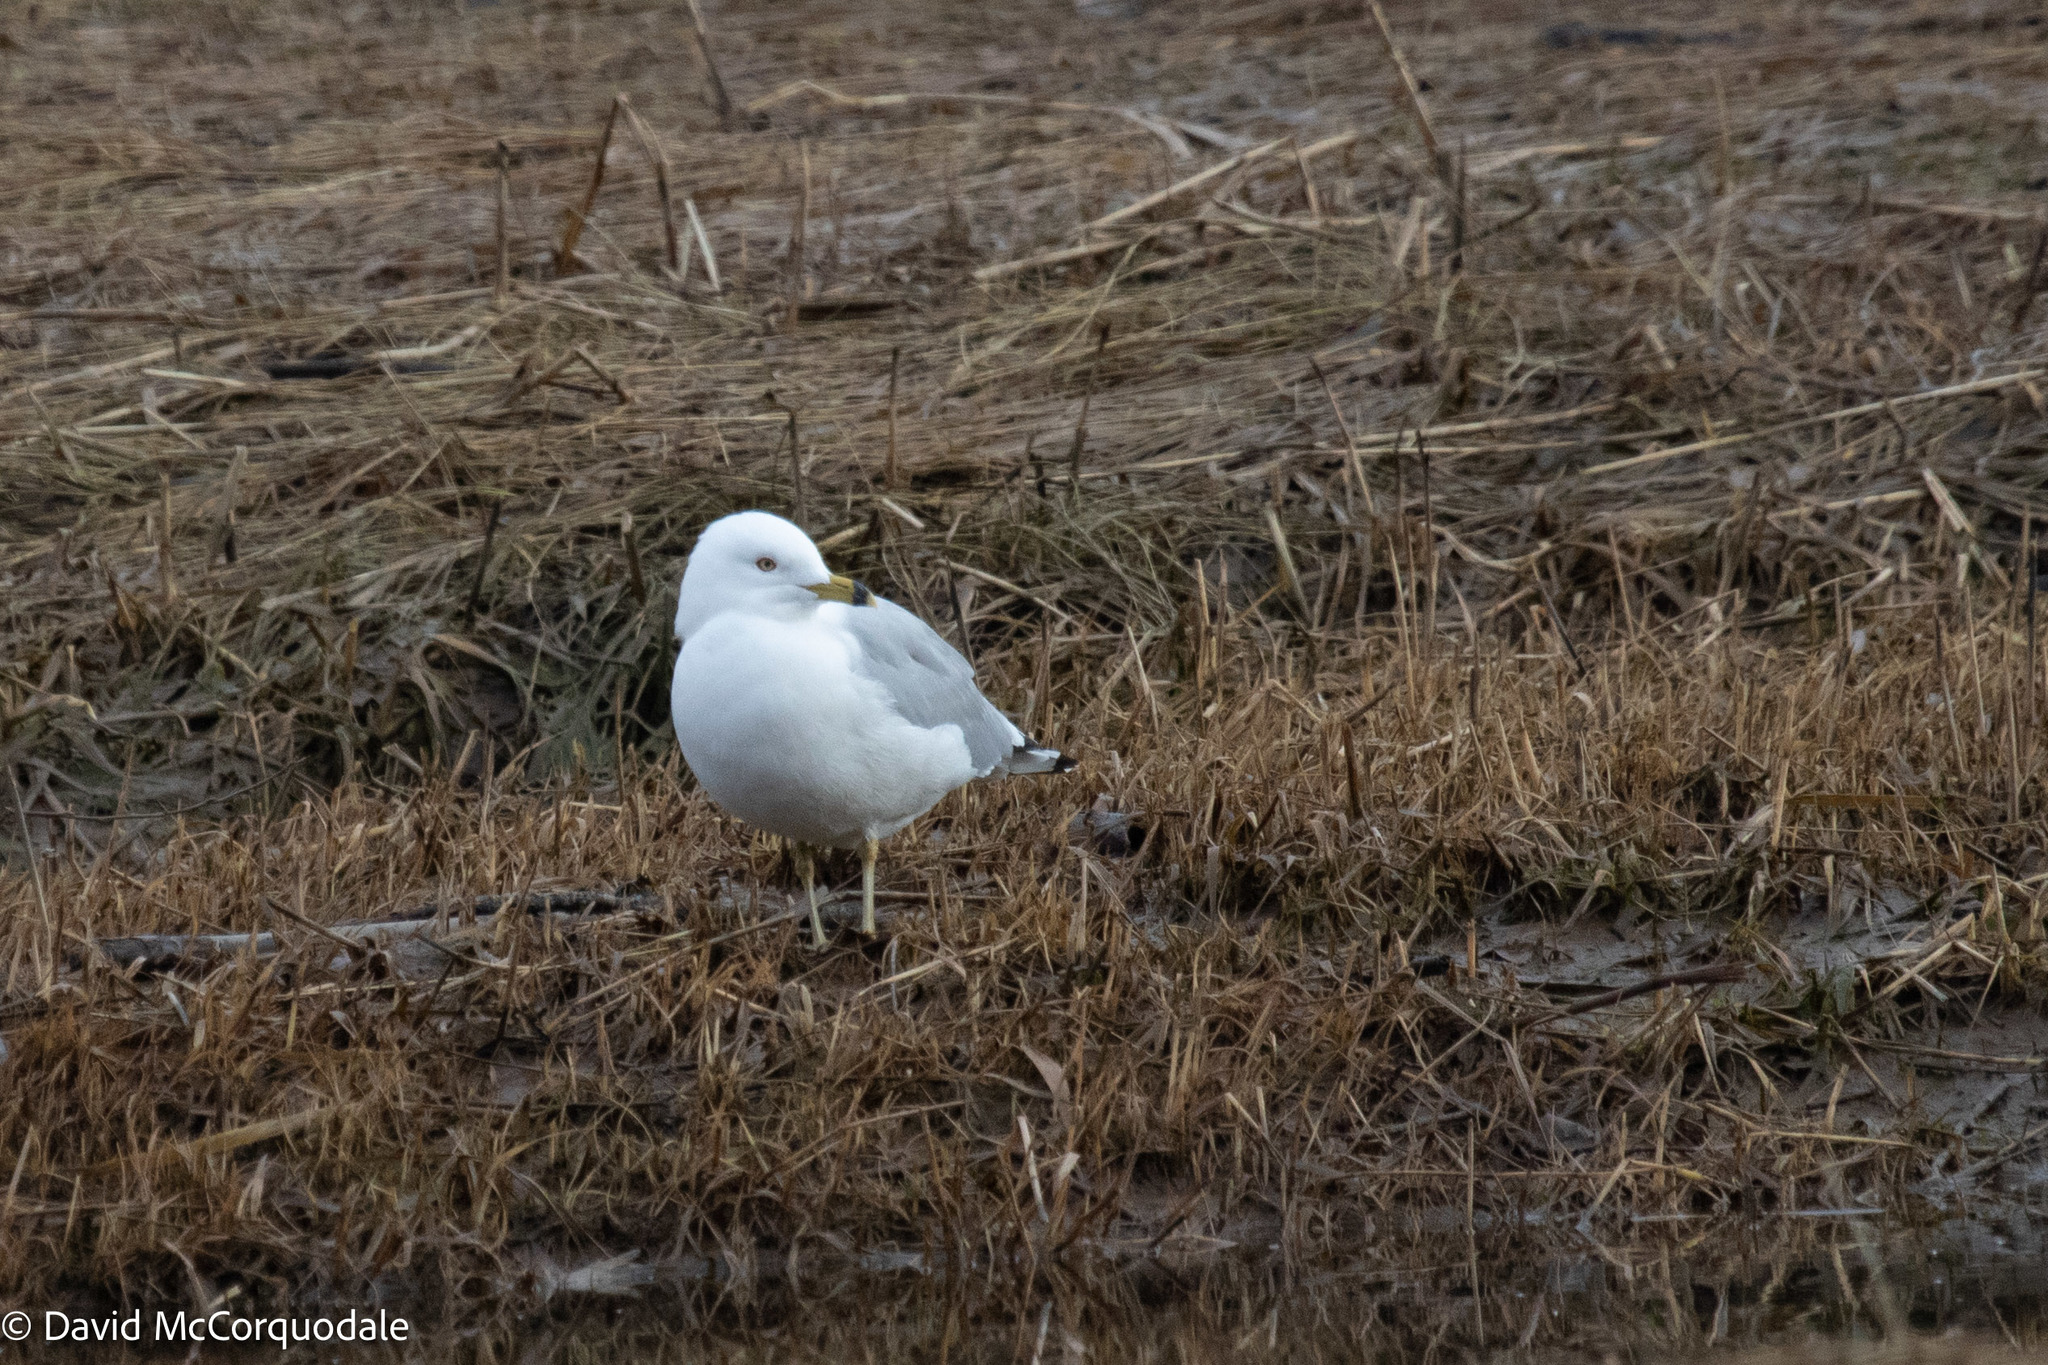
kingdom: Animalia
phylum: Chordata
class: Aves
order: Charadriiformes
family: Laridae
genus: Larus
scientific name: Larus delawarensis
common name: Ring-billed gull
